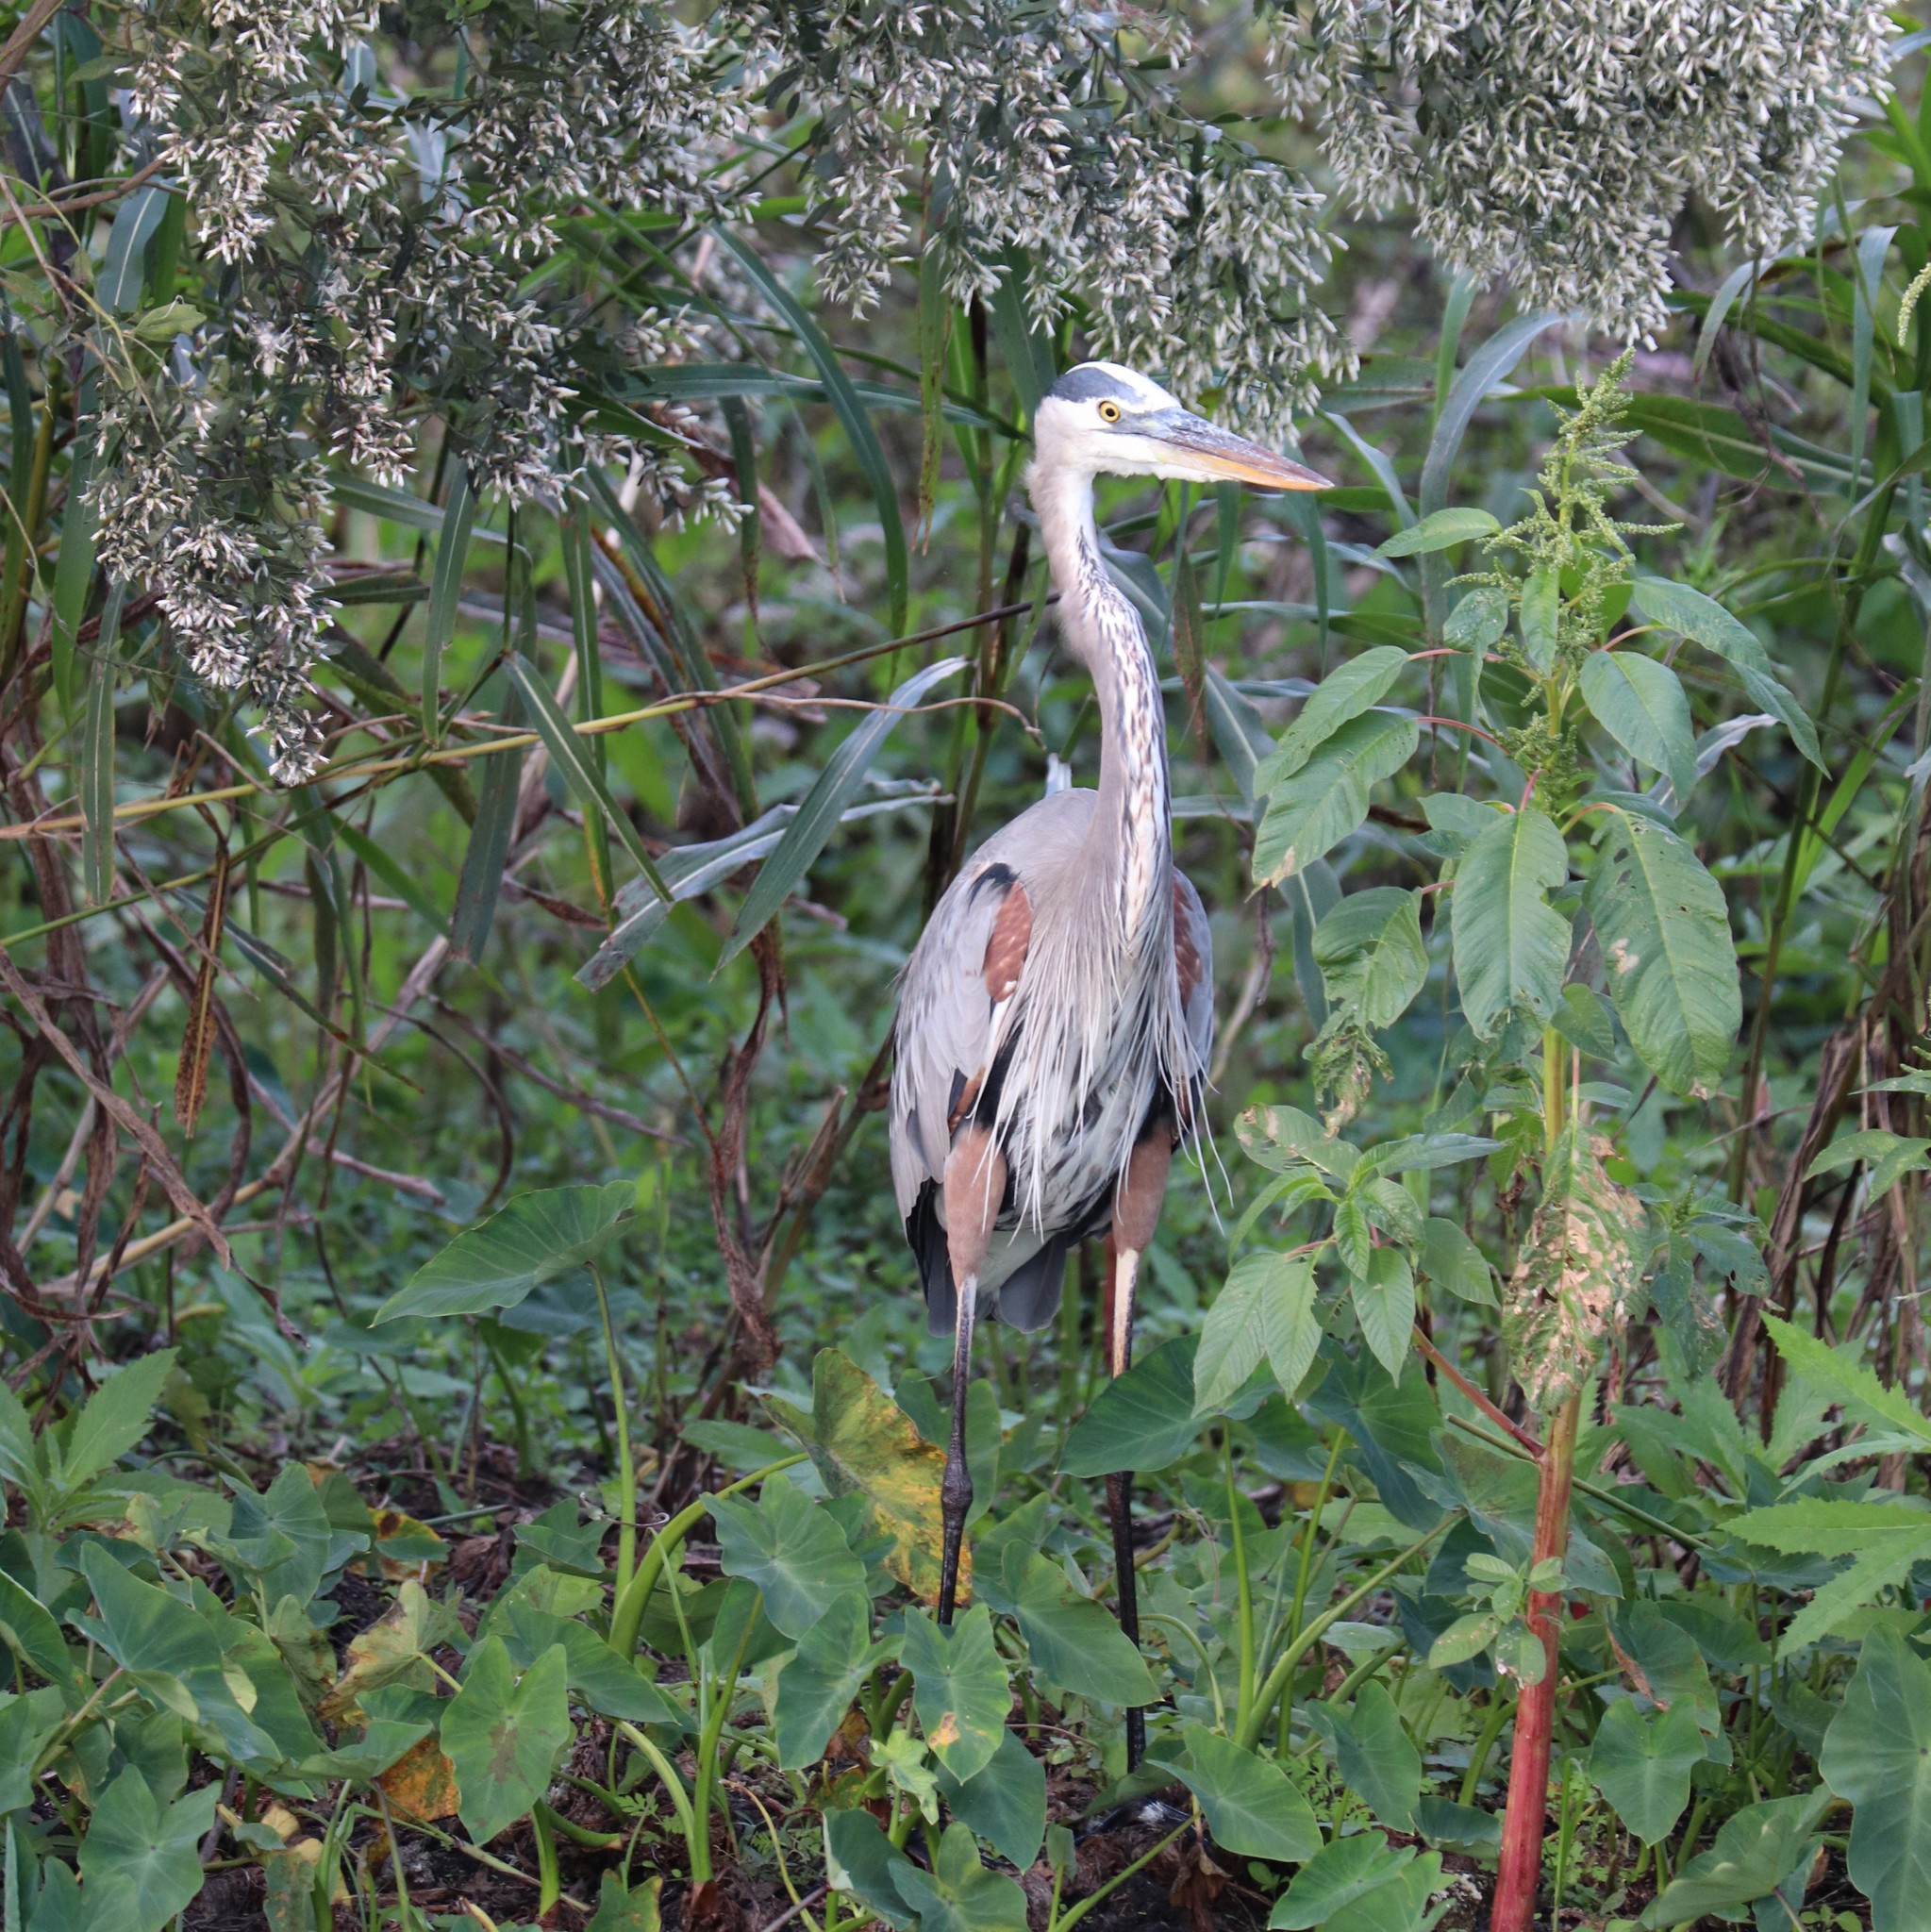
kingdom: Animalia
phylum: Chordata
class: Aves
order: Pelecaniformes
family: Ardeidae
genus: Ardea
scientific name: Ardea herodias
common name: Great blue heron
